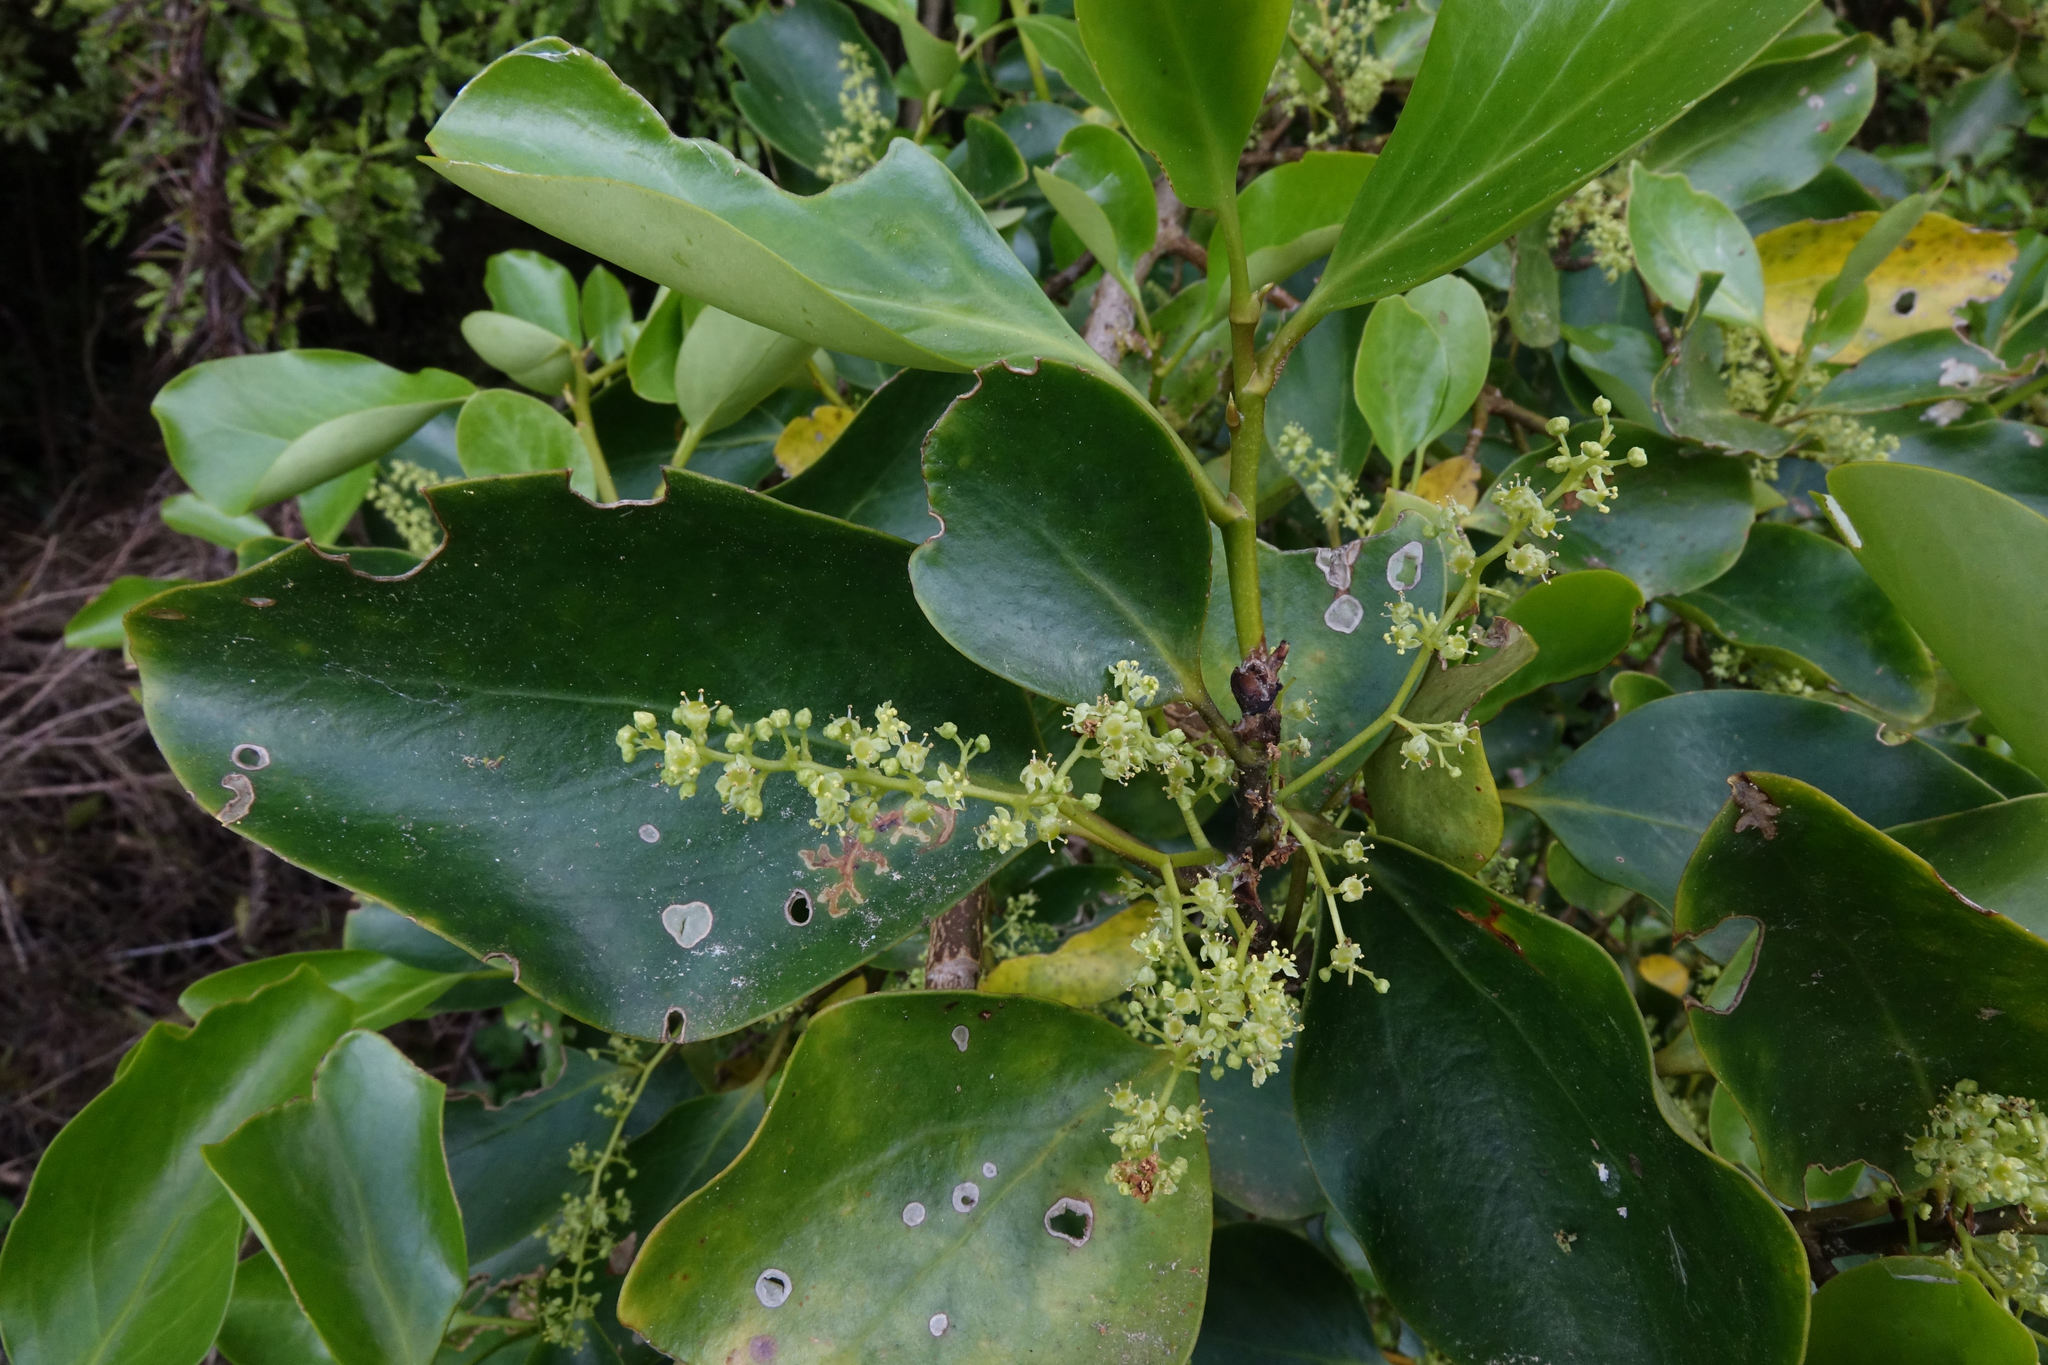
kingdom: Plantae
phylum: Tracheophyta
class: Magnoliopsida
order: Apiales
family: Griseliniaceae
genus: Griselinia
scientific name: Griselinia littoralis
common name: New zealand broadleaf
